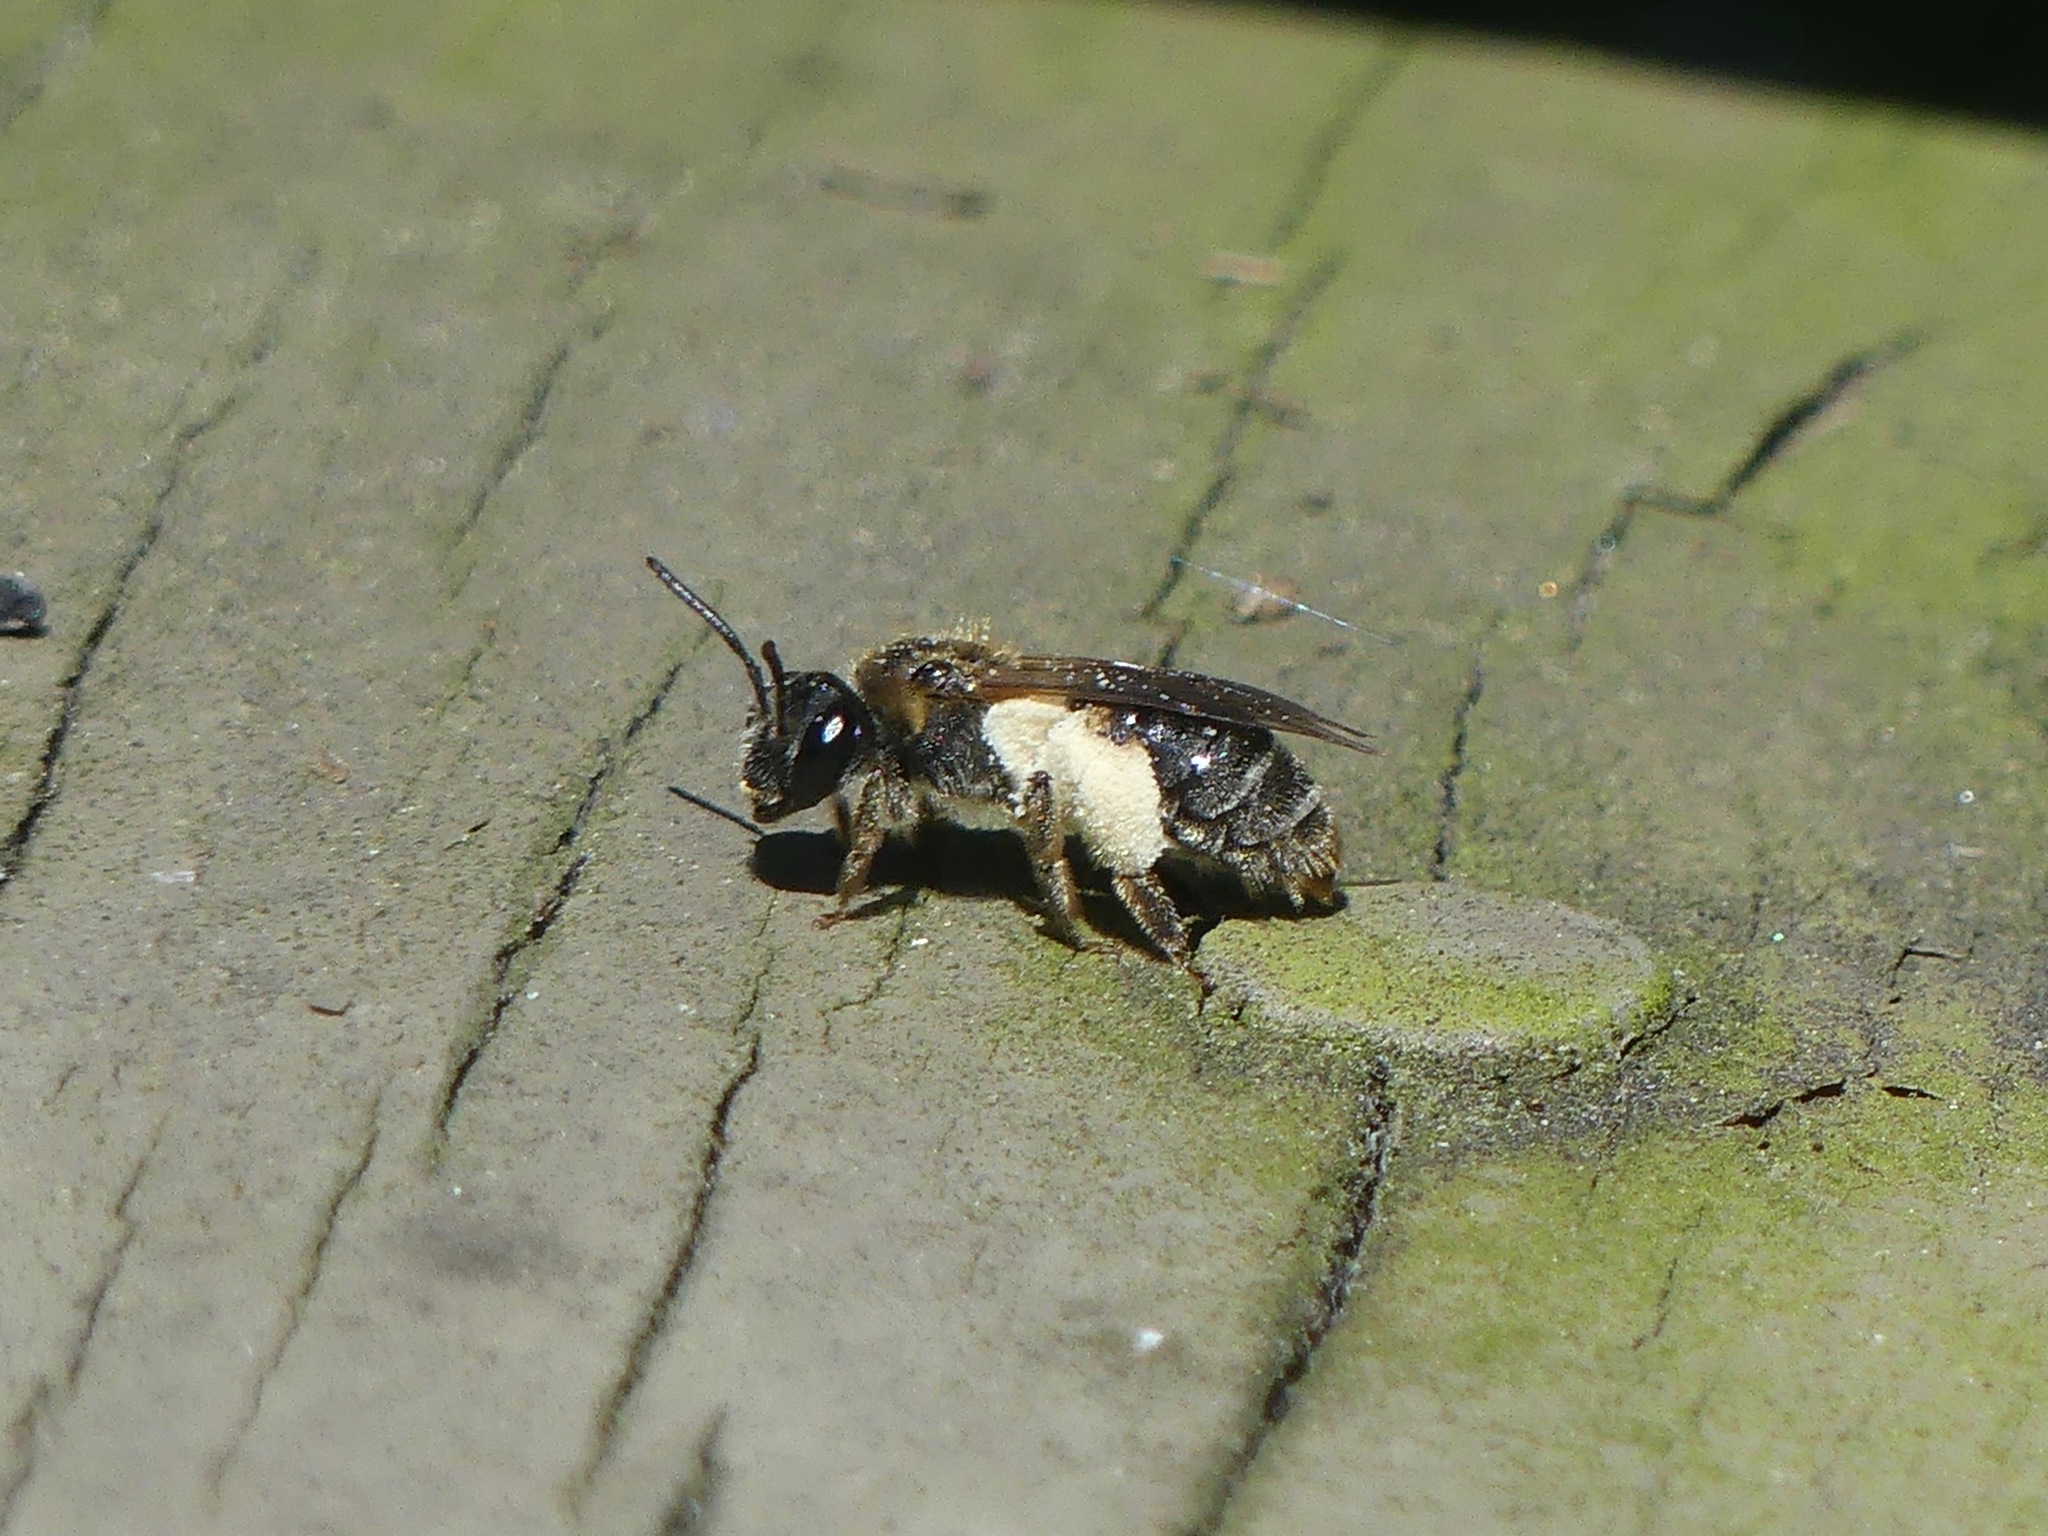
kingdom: Animalia
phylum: Arthropoda
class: Insecta
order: Hymenoptera
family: Andrenidae
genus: Andrena
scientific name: Andrena
